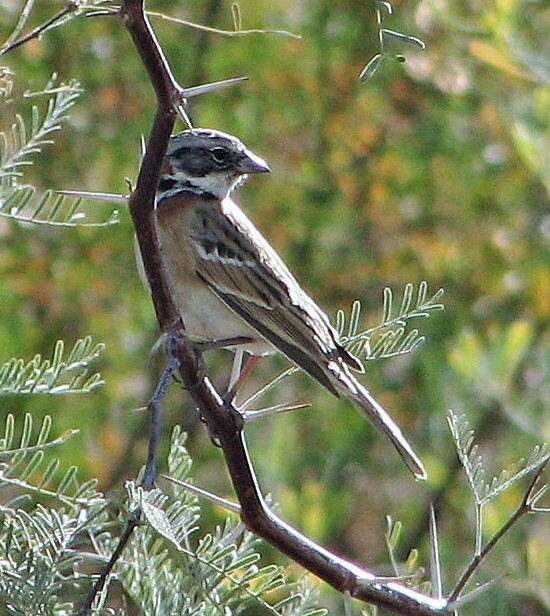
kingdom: Animalia
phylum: Chordata
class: Aves
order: Passeriformes
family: Passerellidae
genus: Zonotrichia
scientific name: Zonotrichia capensis
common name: Rufous-collared sparrow
